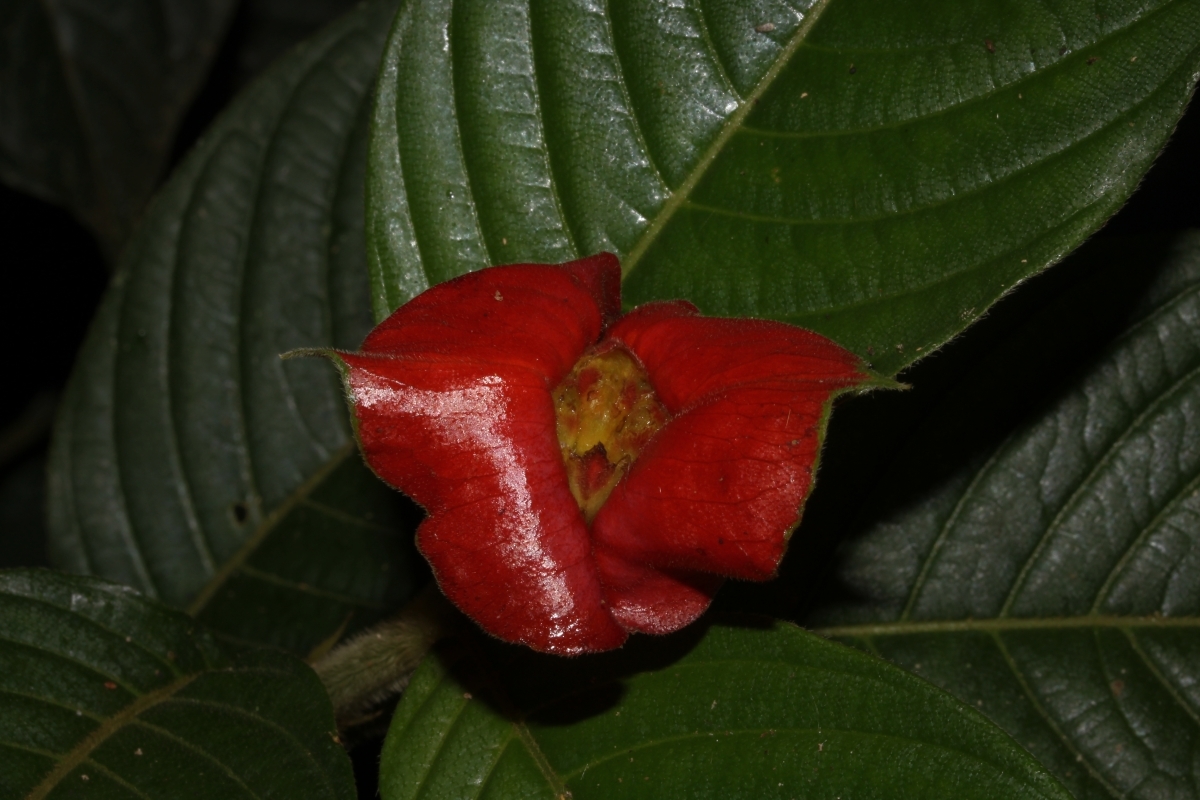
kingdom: Plantae
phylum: Tracheophyta
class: Magnoliopsida
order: Gentianales
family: Rubiaceae
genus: Palicourea
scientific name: Palicourea tomentosa
